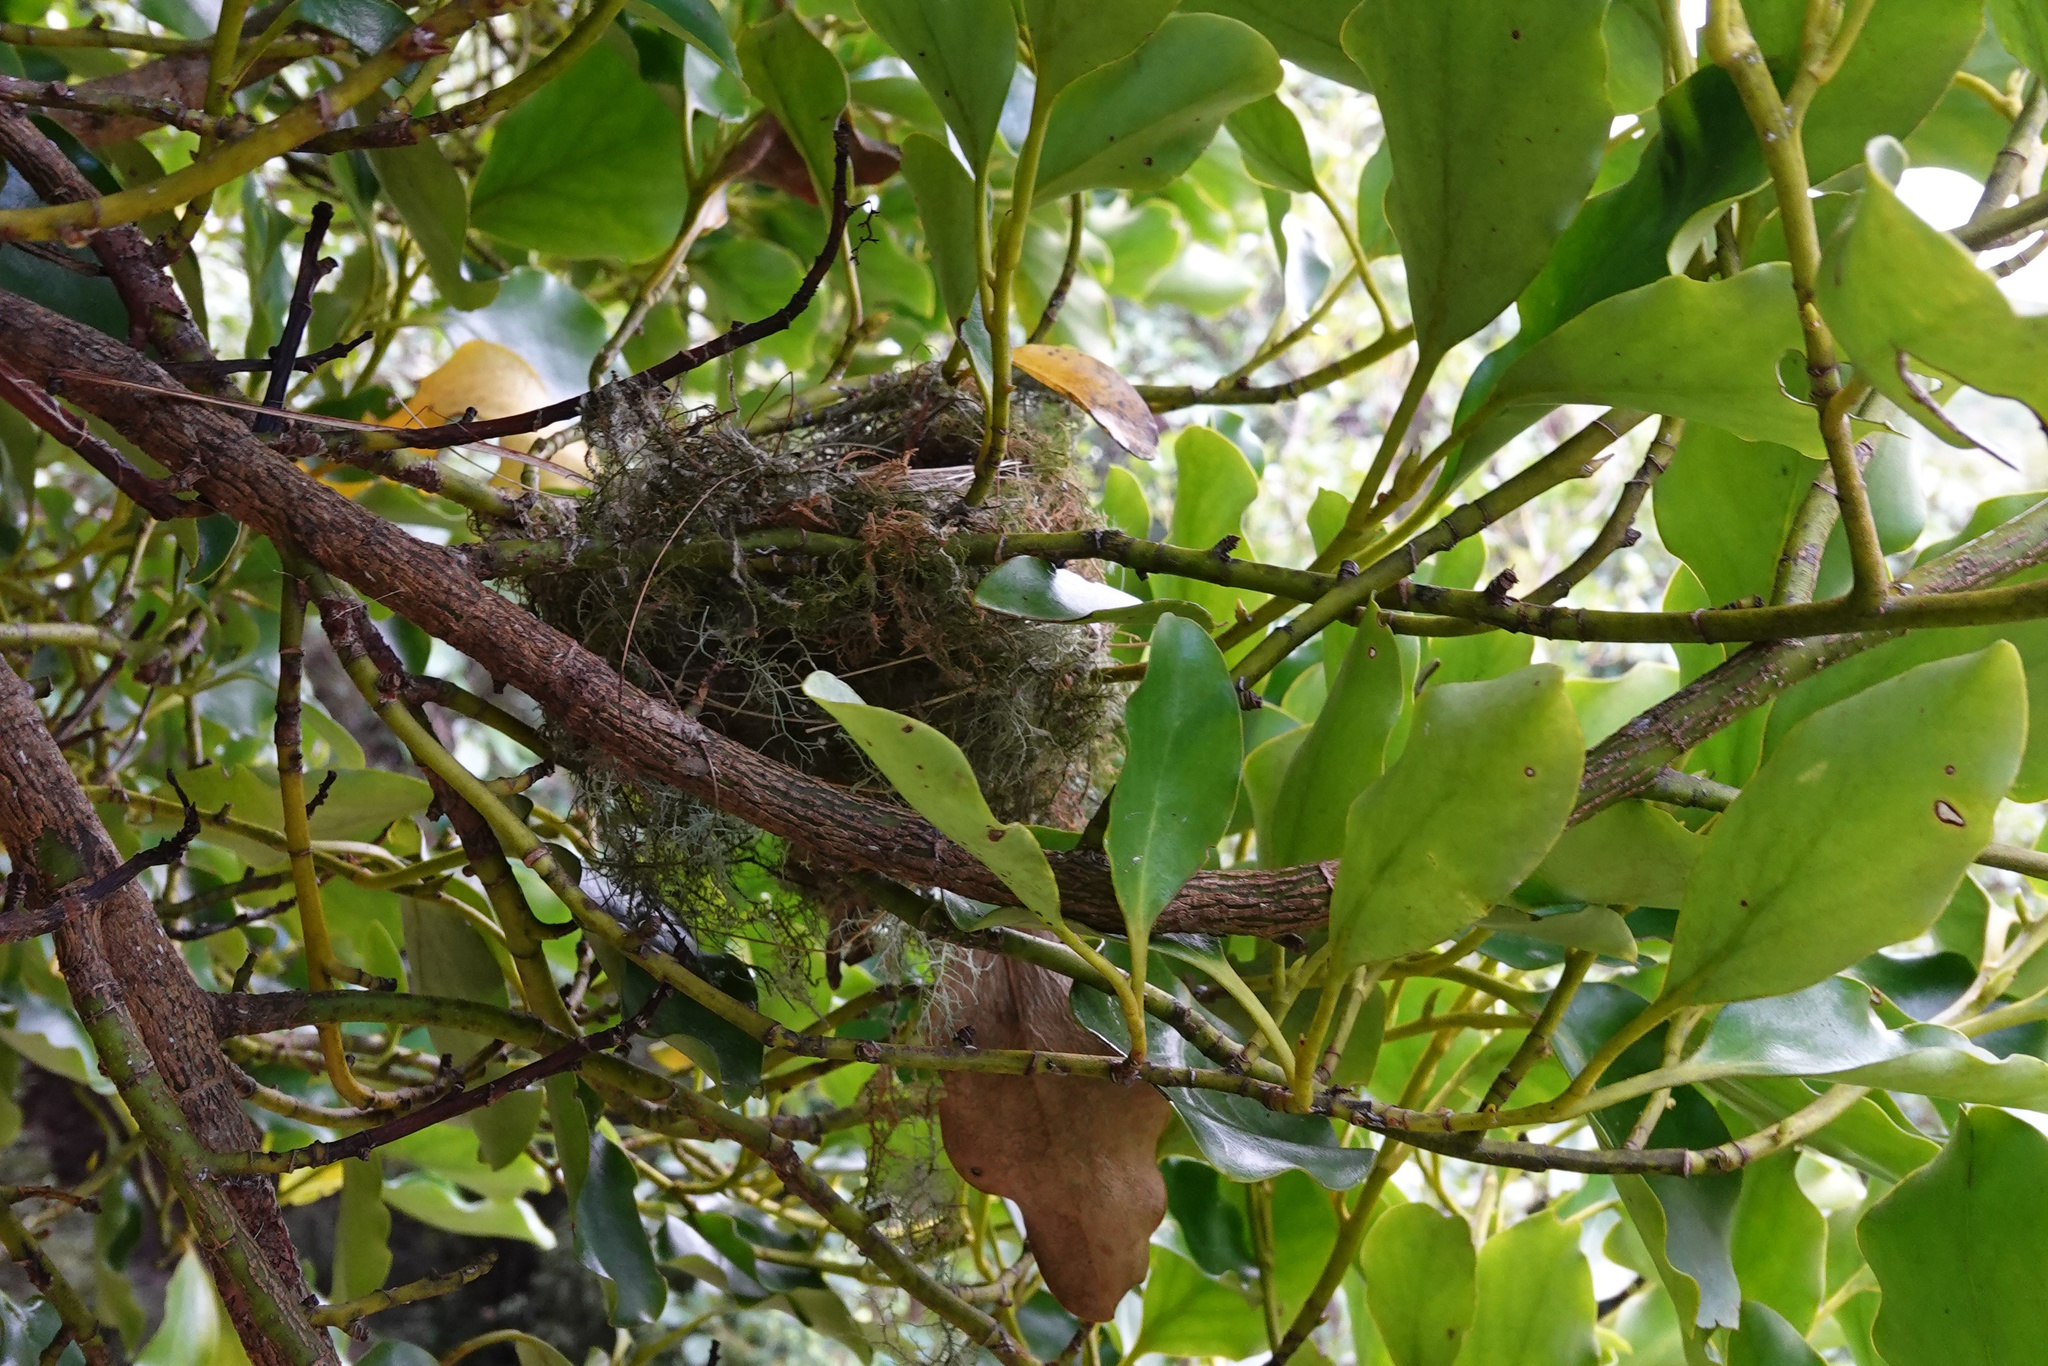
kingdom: Animalia
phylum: Chordata
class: Aves
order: Passeriformes
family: Zosteropidae
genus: Zosterops
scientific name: Zosterops lateralis
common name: Silvereye
